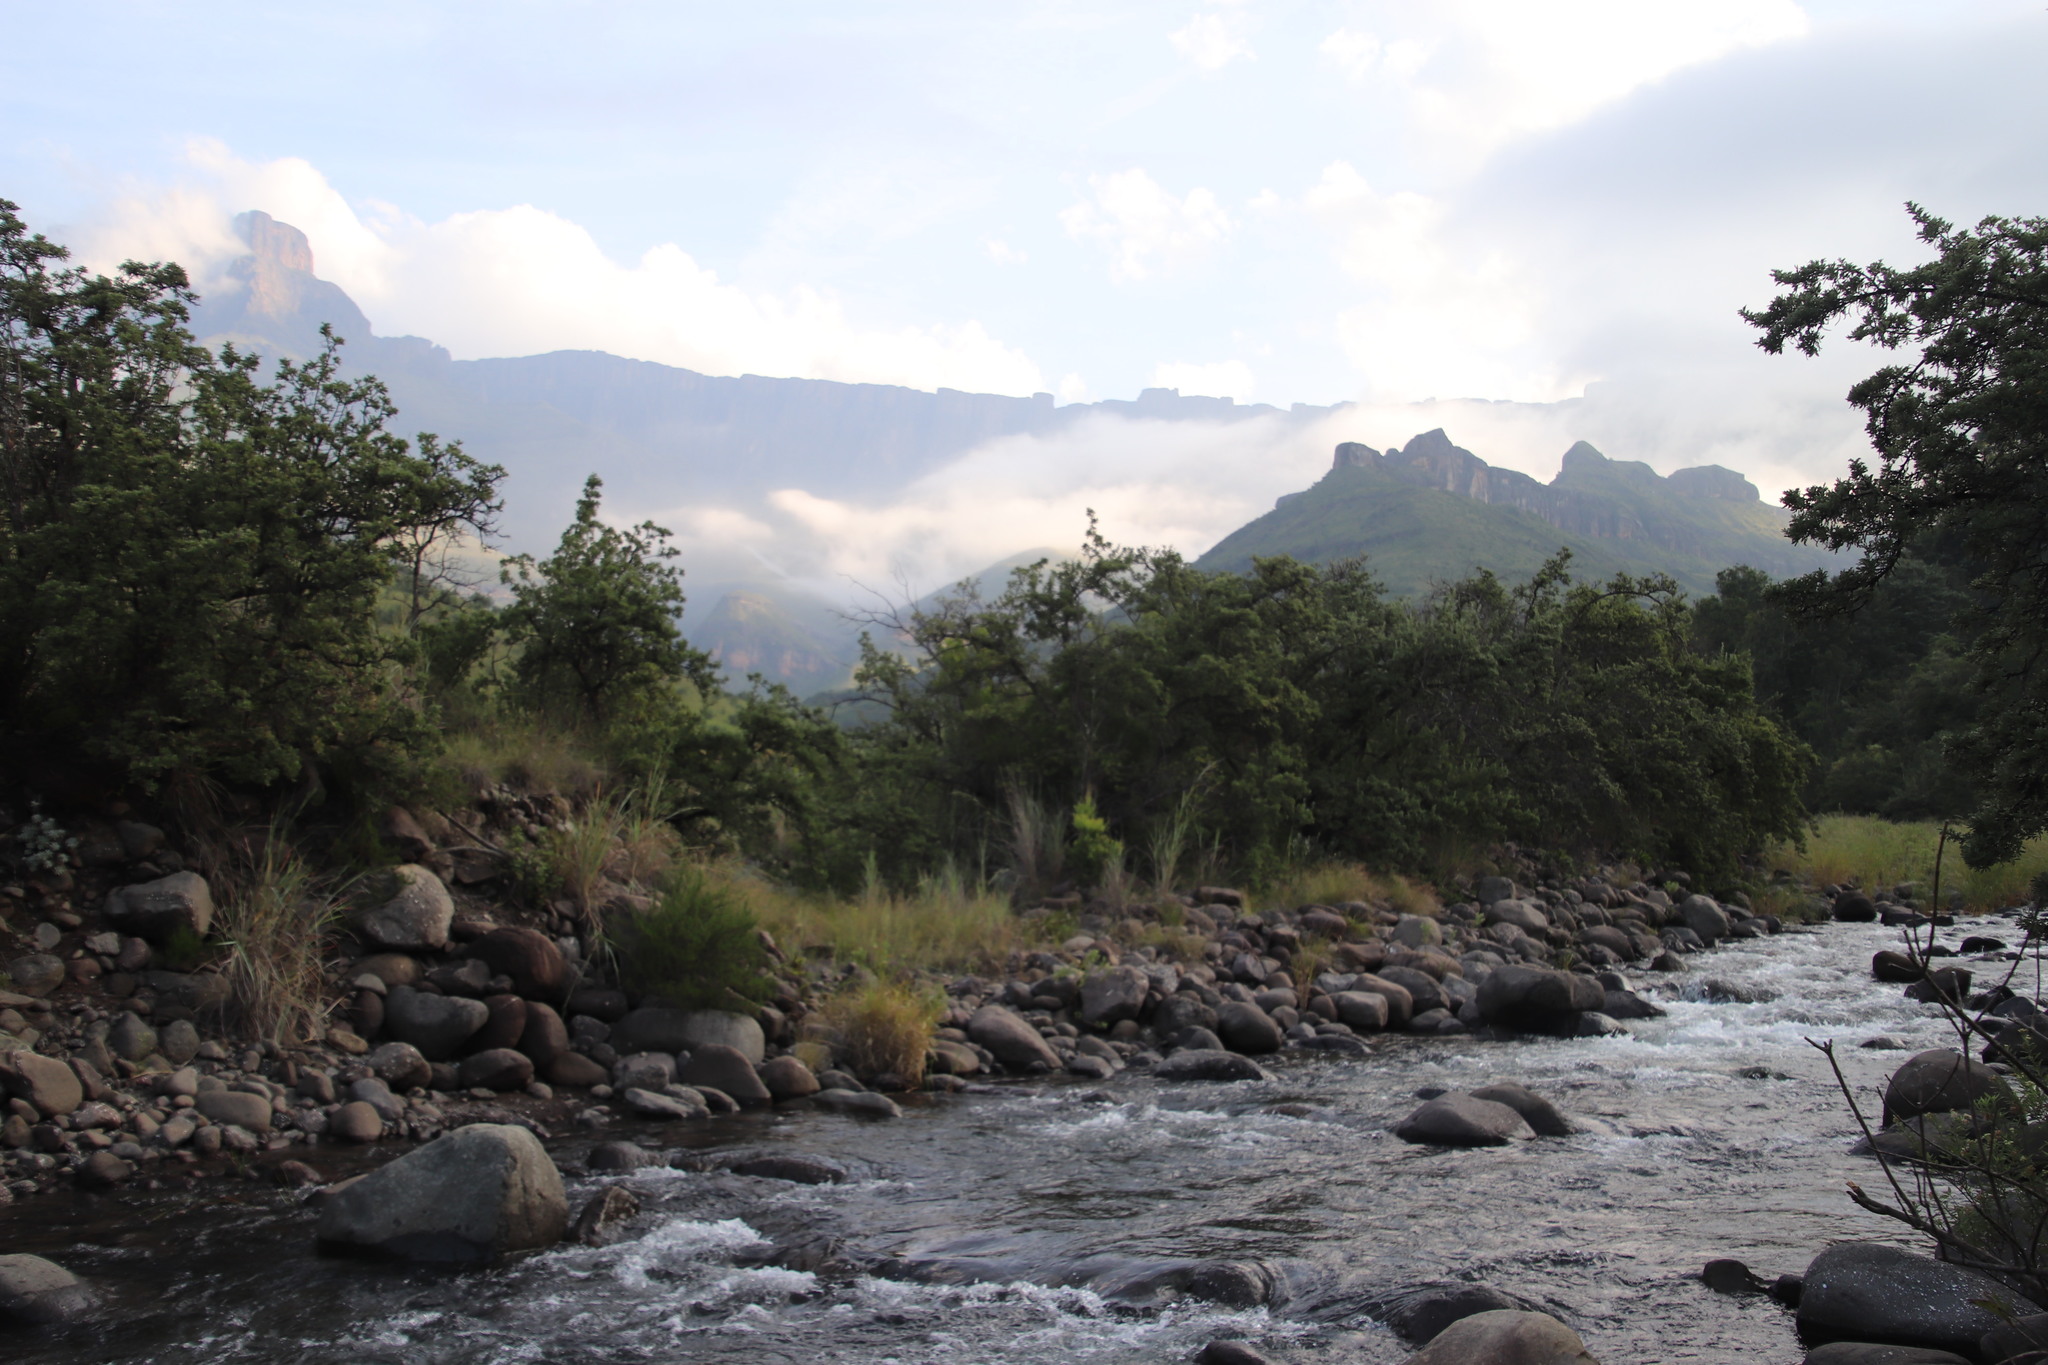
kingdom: Plantae
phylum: Tracheophyta
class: Magnoliopsida
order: Rosales
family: Rosaceae
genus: Leucosidea
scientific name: Leucosidea sericea
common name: Oldwood
